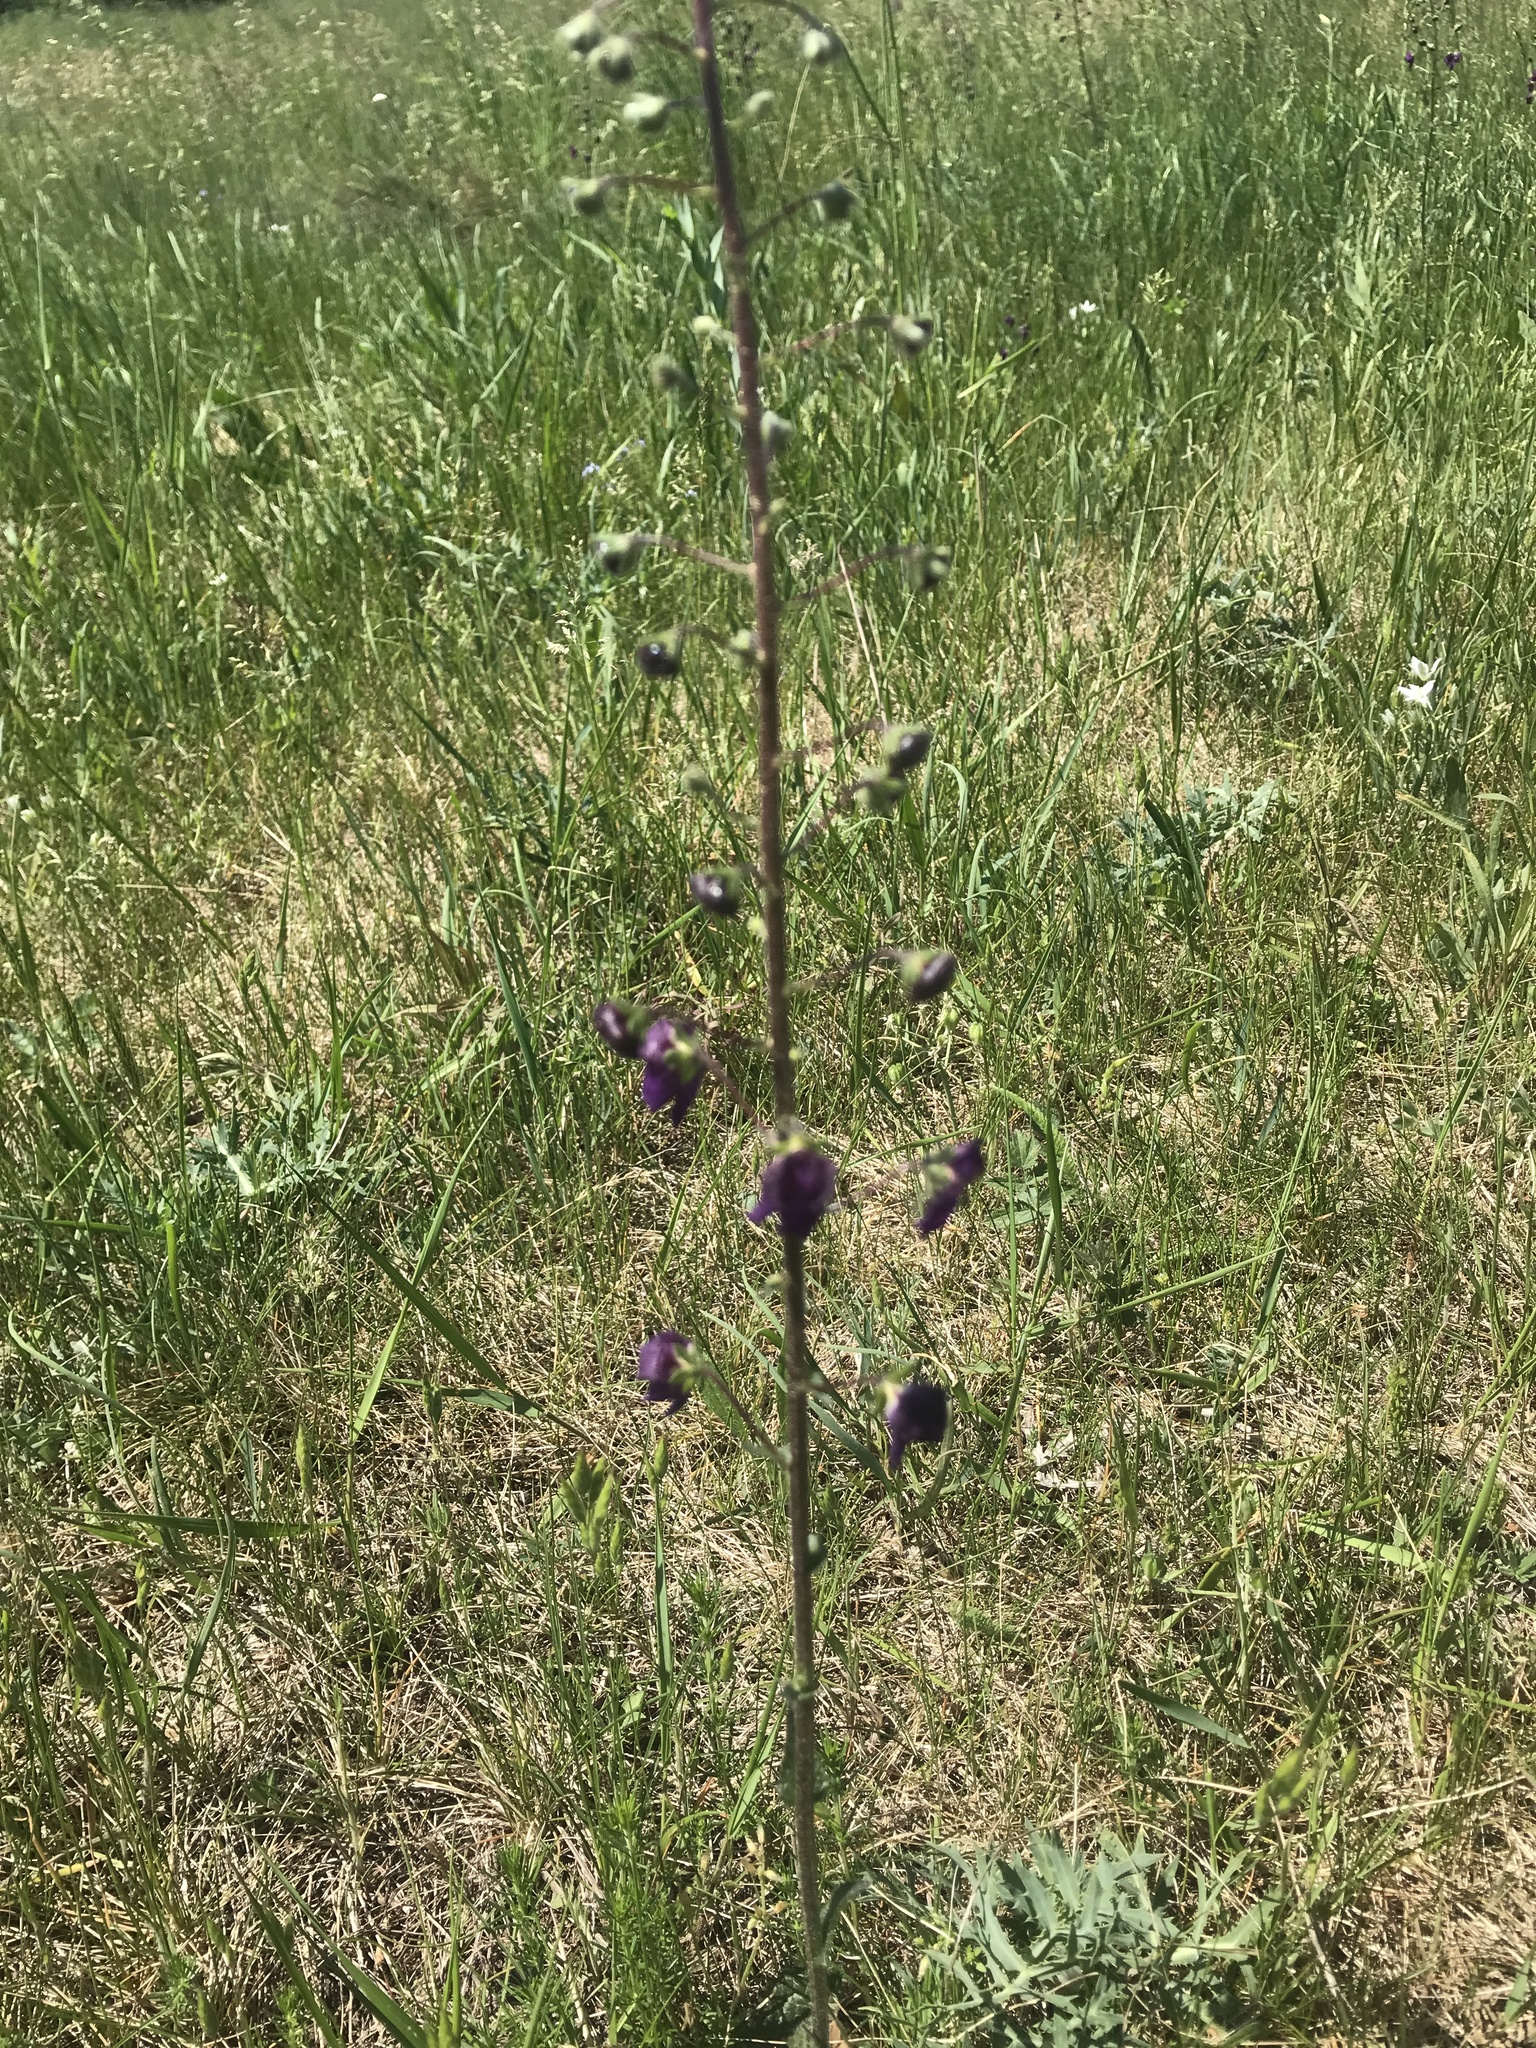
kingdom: Plantae
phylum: Tracheophyta
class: Magnoliopsida
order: Lamiales
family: Scrophulariaceae
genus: Verbascum
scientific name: Verbascum phoeniceum
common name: Purple mullein
